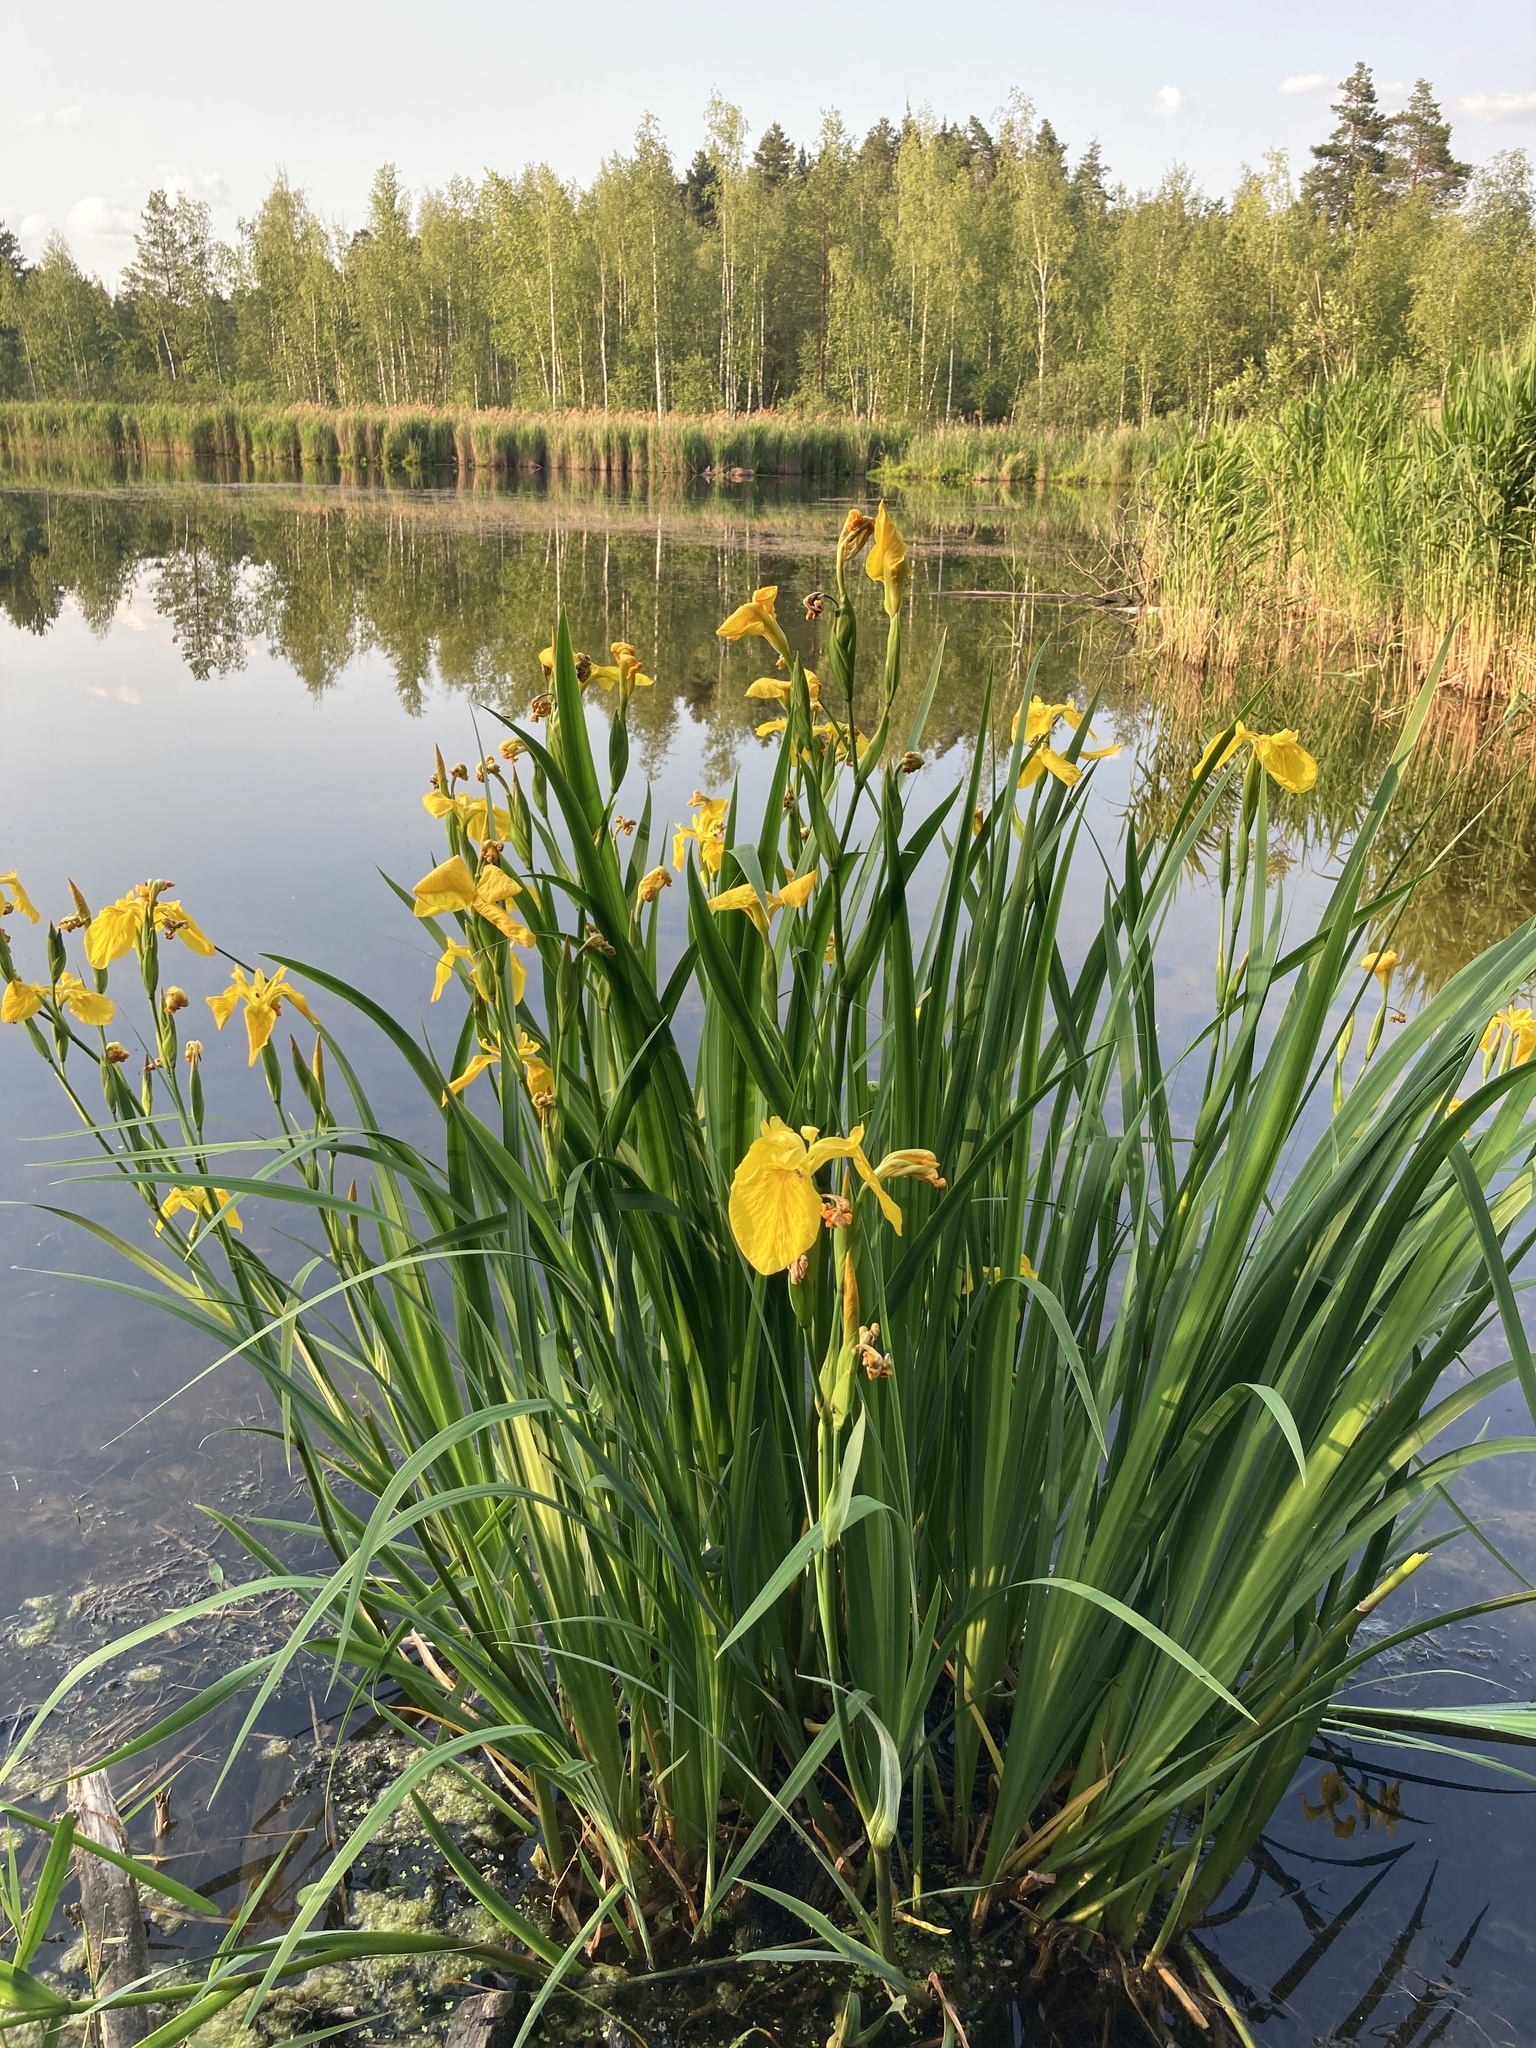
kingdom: Plantae
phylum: Tracheophyta
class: Liliopsida
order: Asparagales
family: Iridaceae
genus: Iris
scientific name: Iris pseudacorus
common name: Yellow flag
